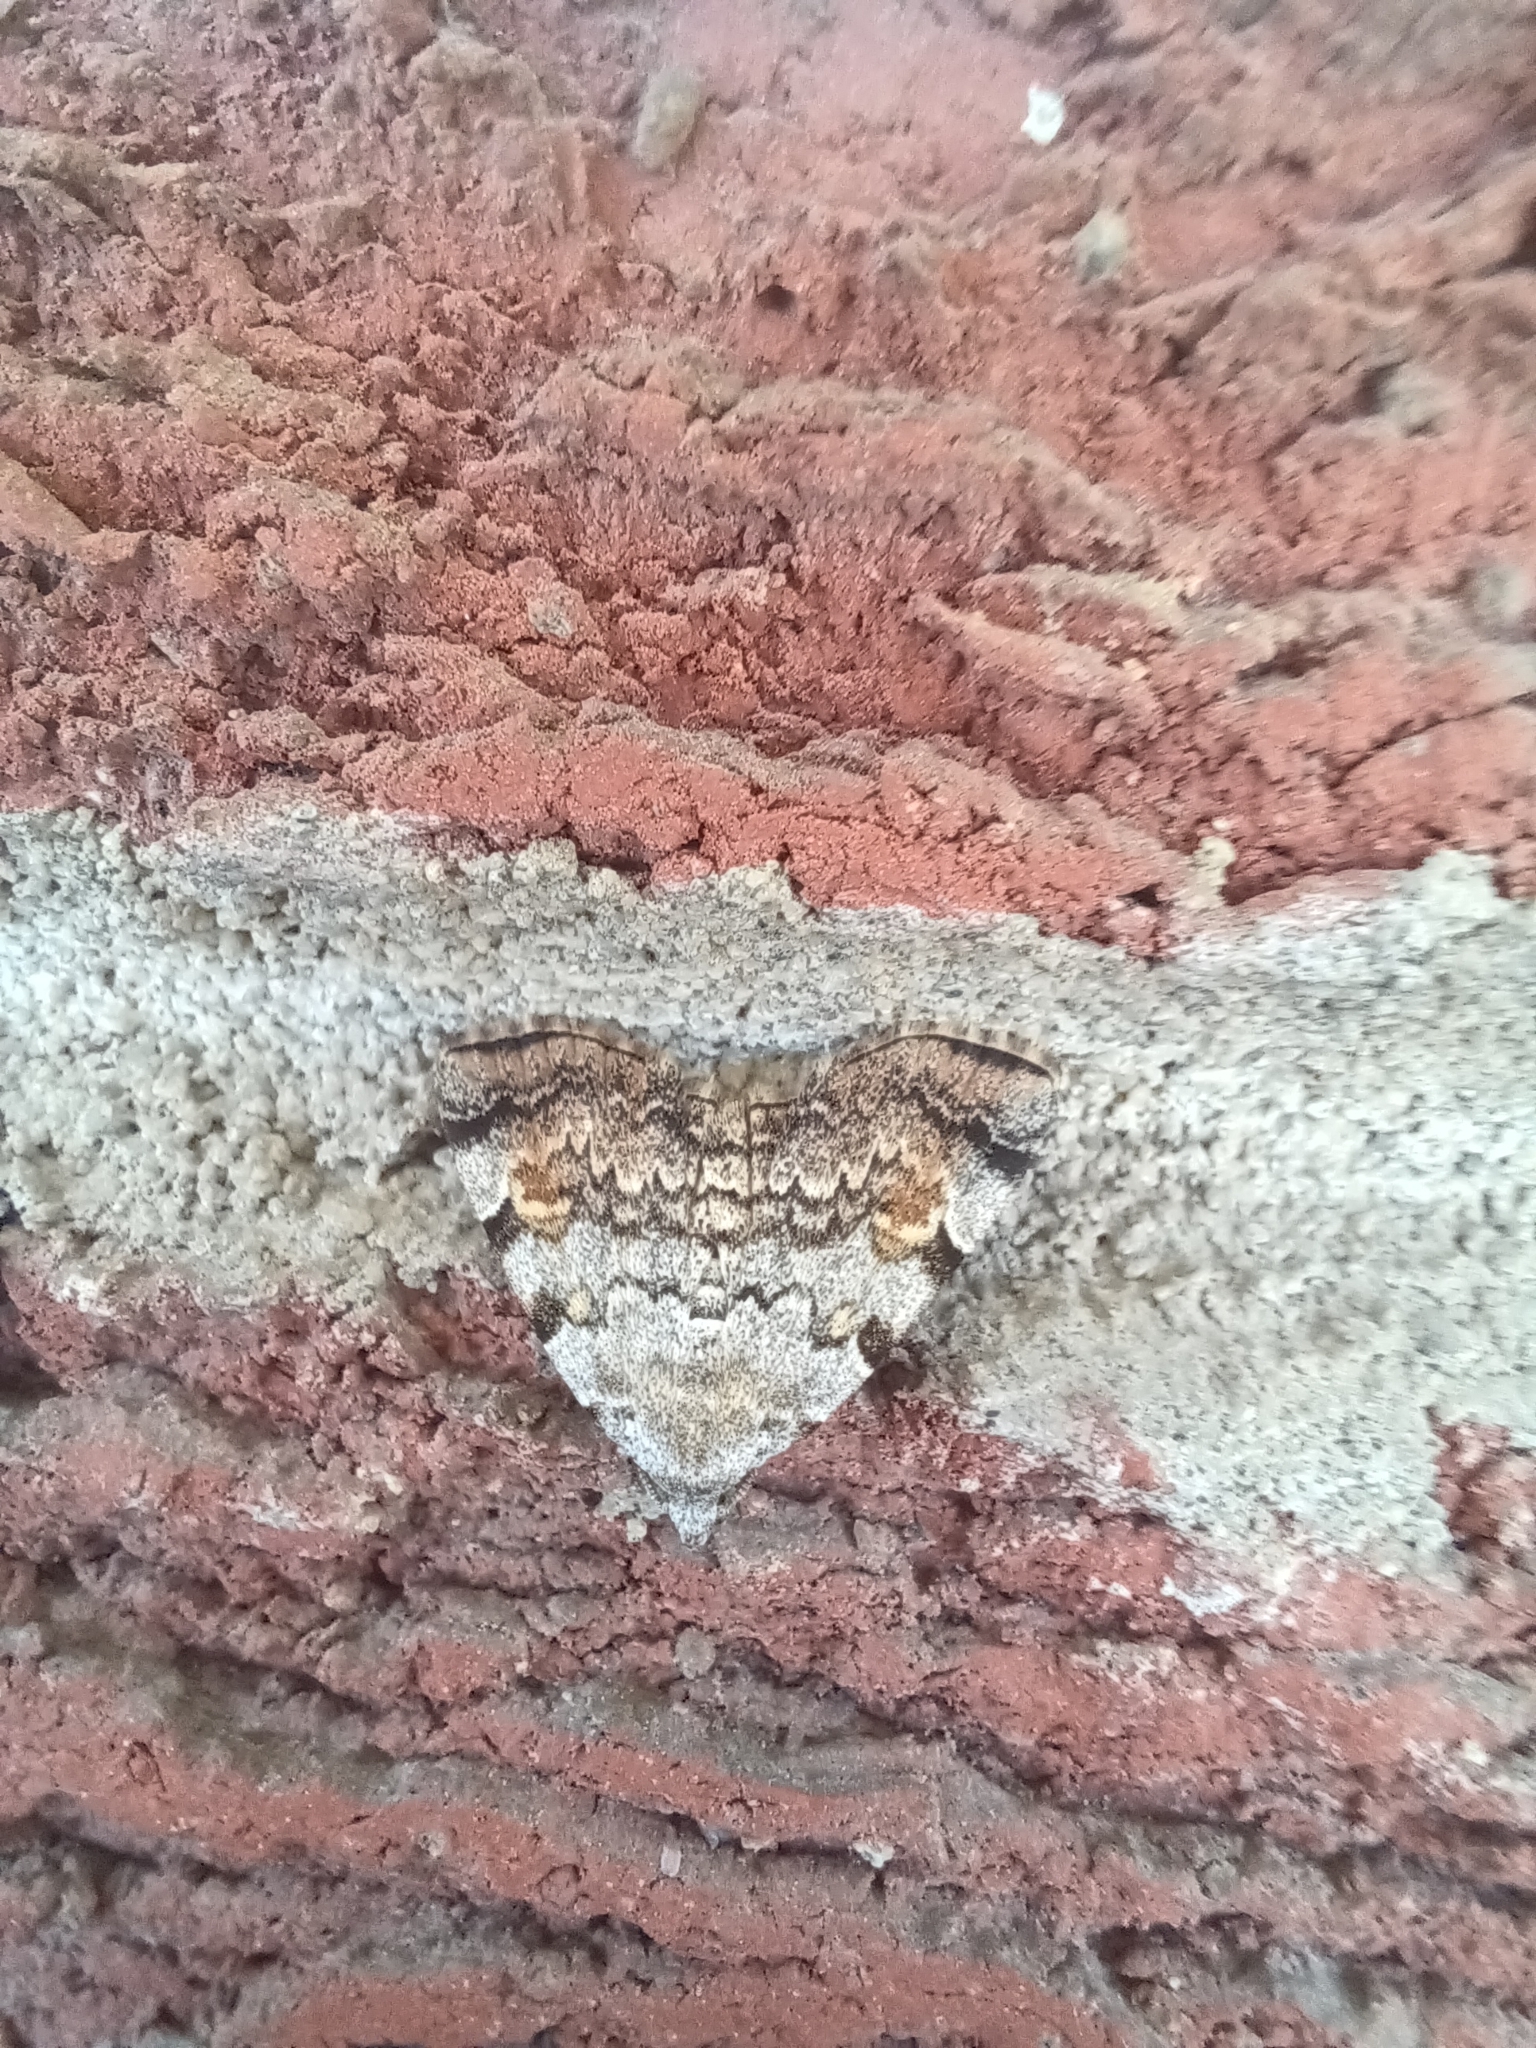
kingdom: Animalia
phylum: Arthropoda
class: Insecta
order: Lepidoptera
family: Erebidae
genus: Idia
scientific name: Idia americalis
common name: American idia moth
